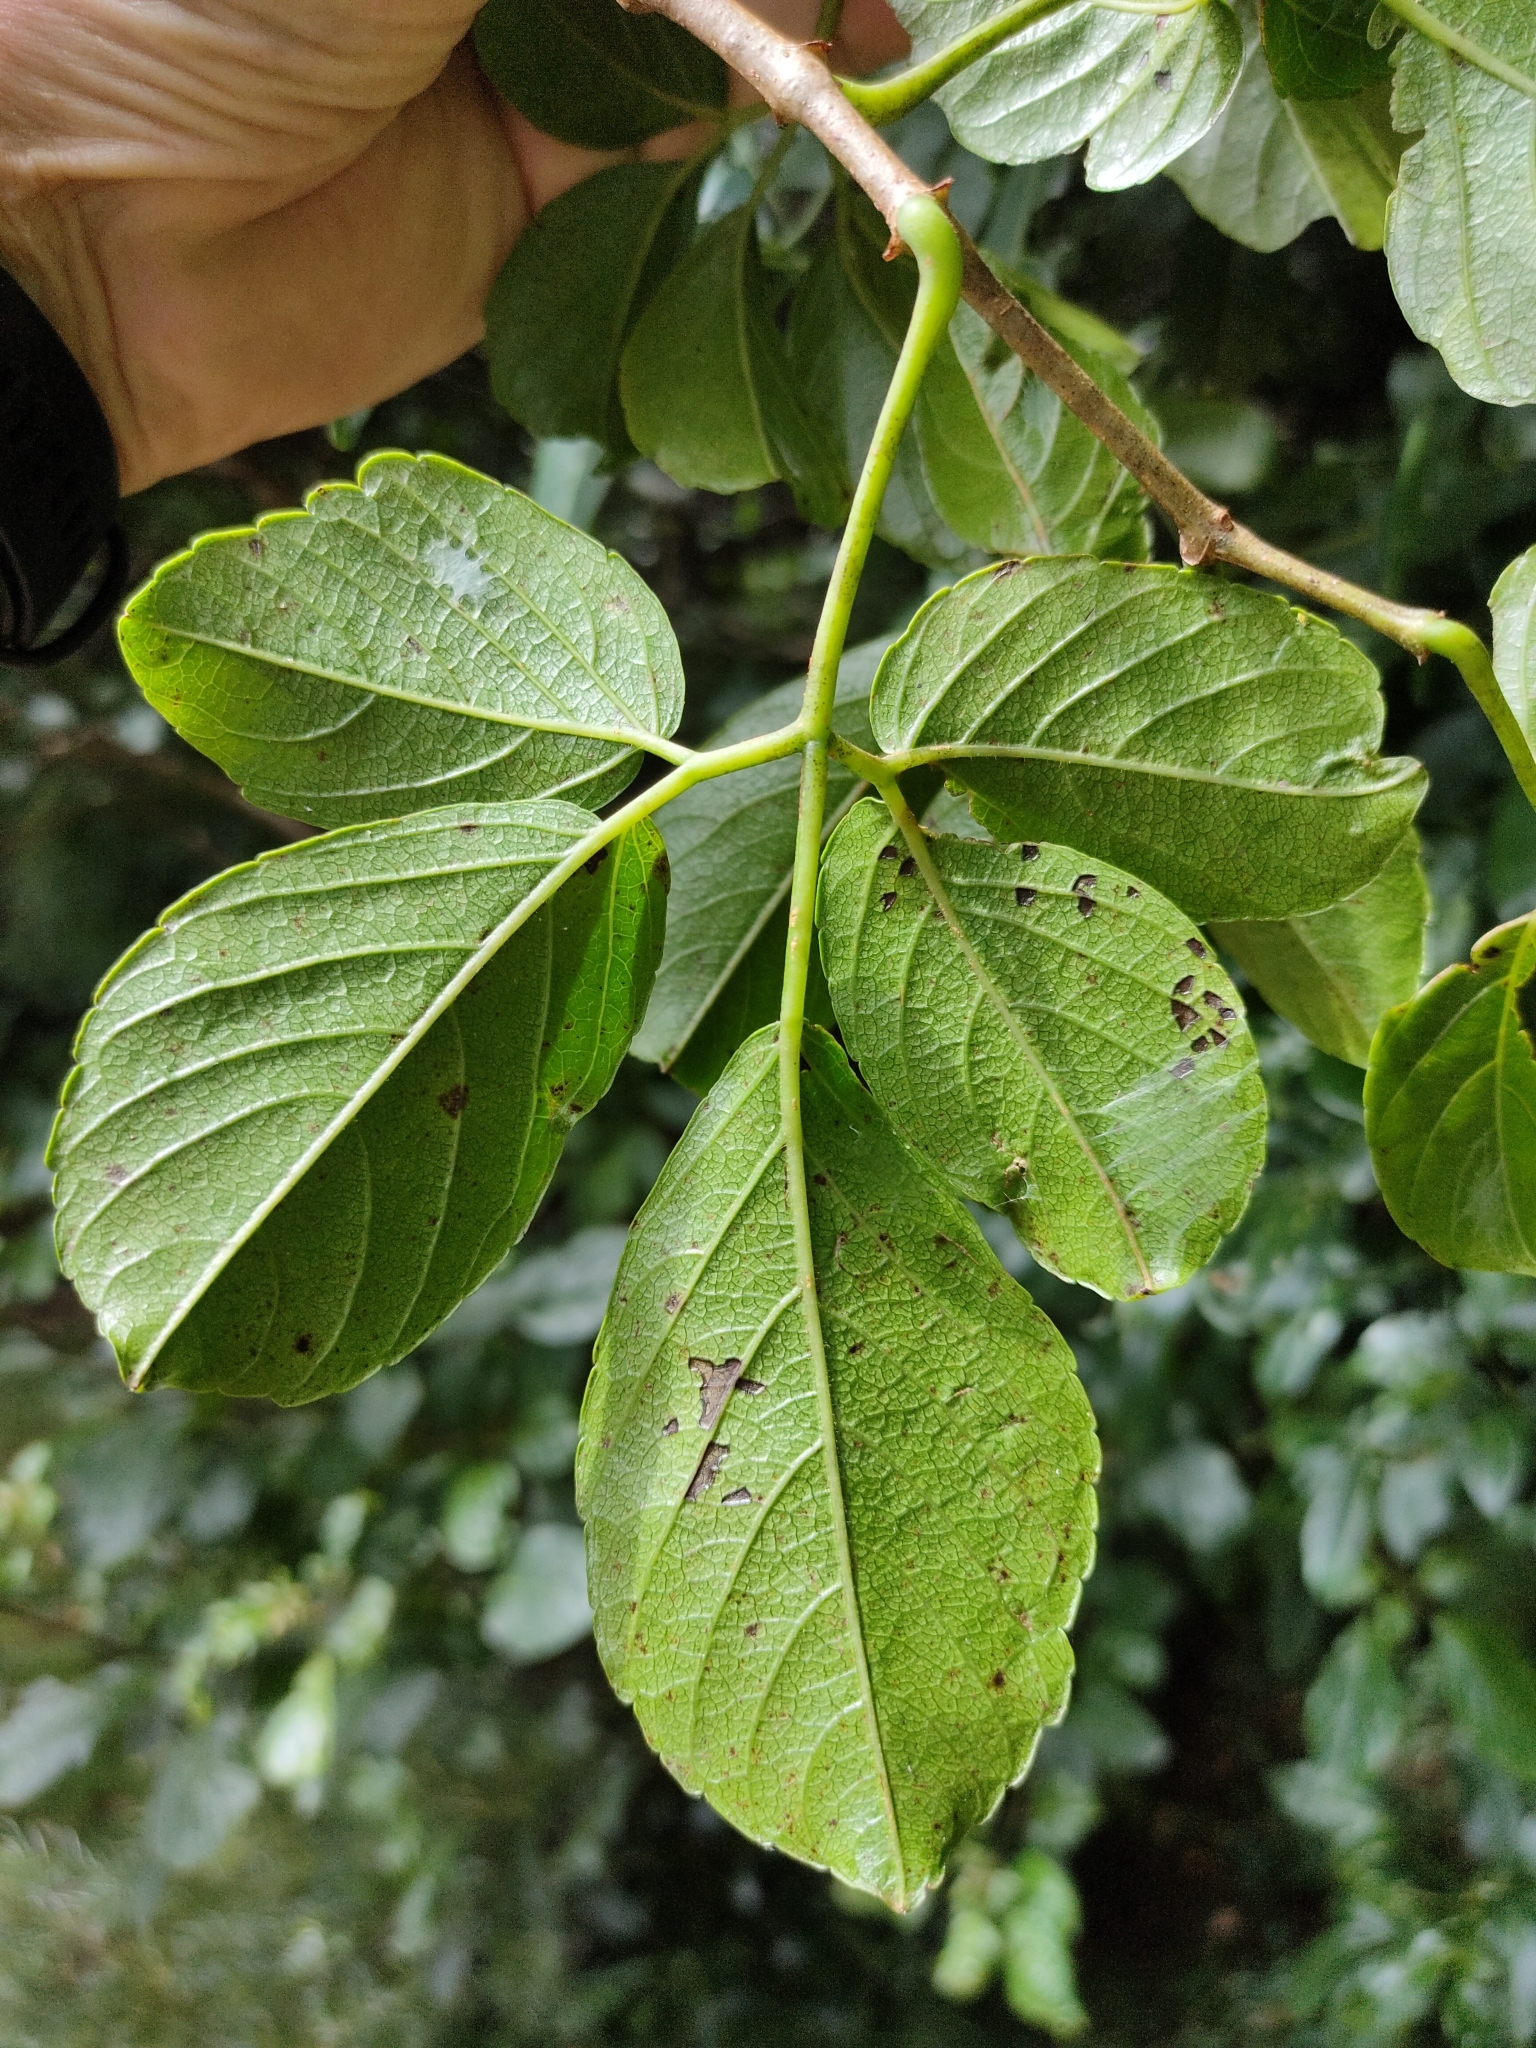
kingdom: Plantae
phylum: Tracheophyta
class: Magnoliopsida
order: Vitales
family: Vitaceae
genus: Causonis
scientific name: Causonis eurynema
